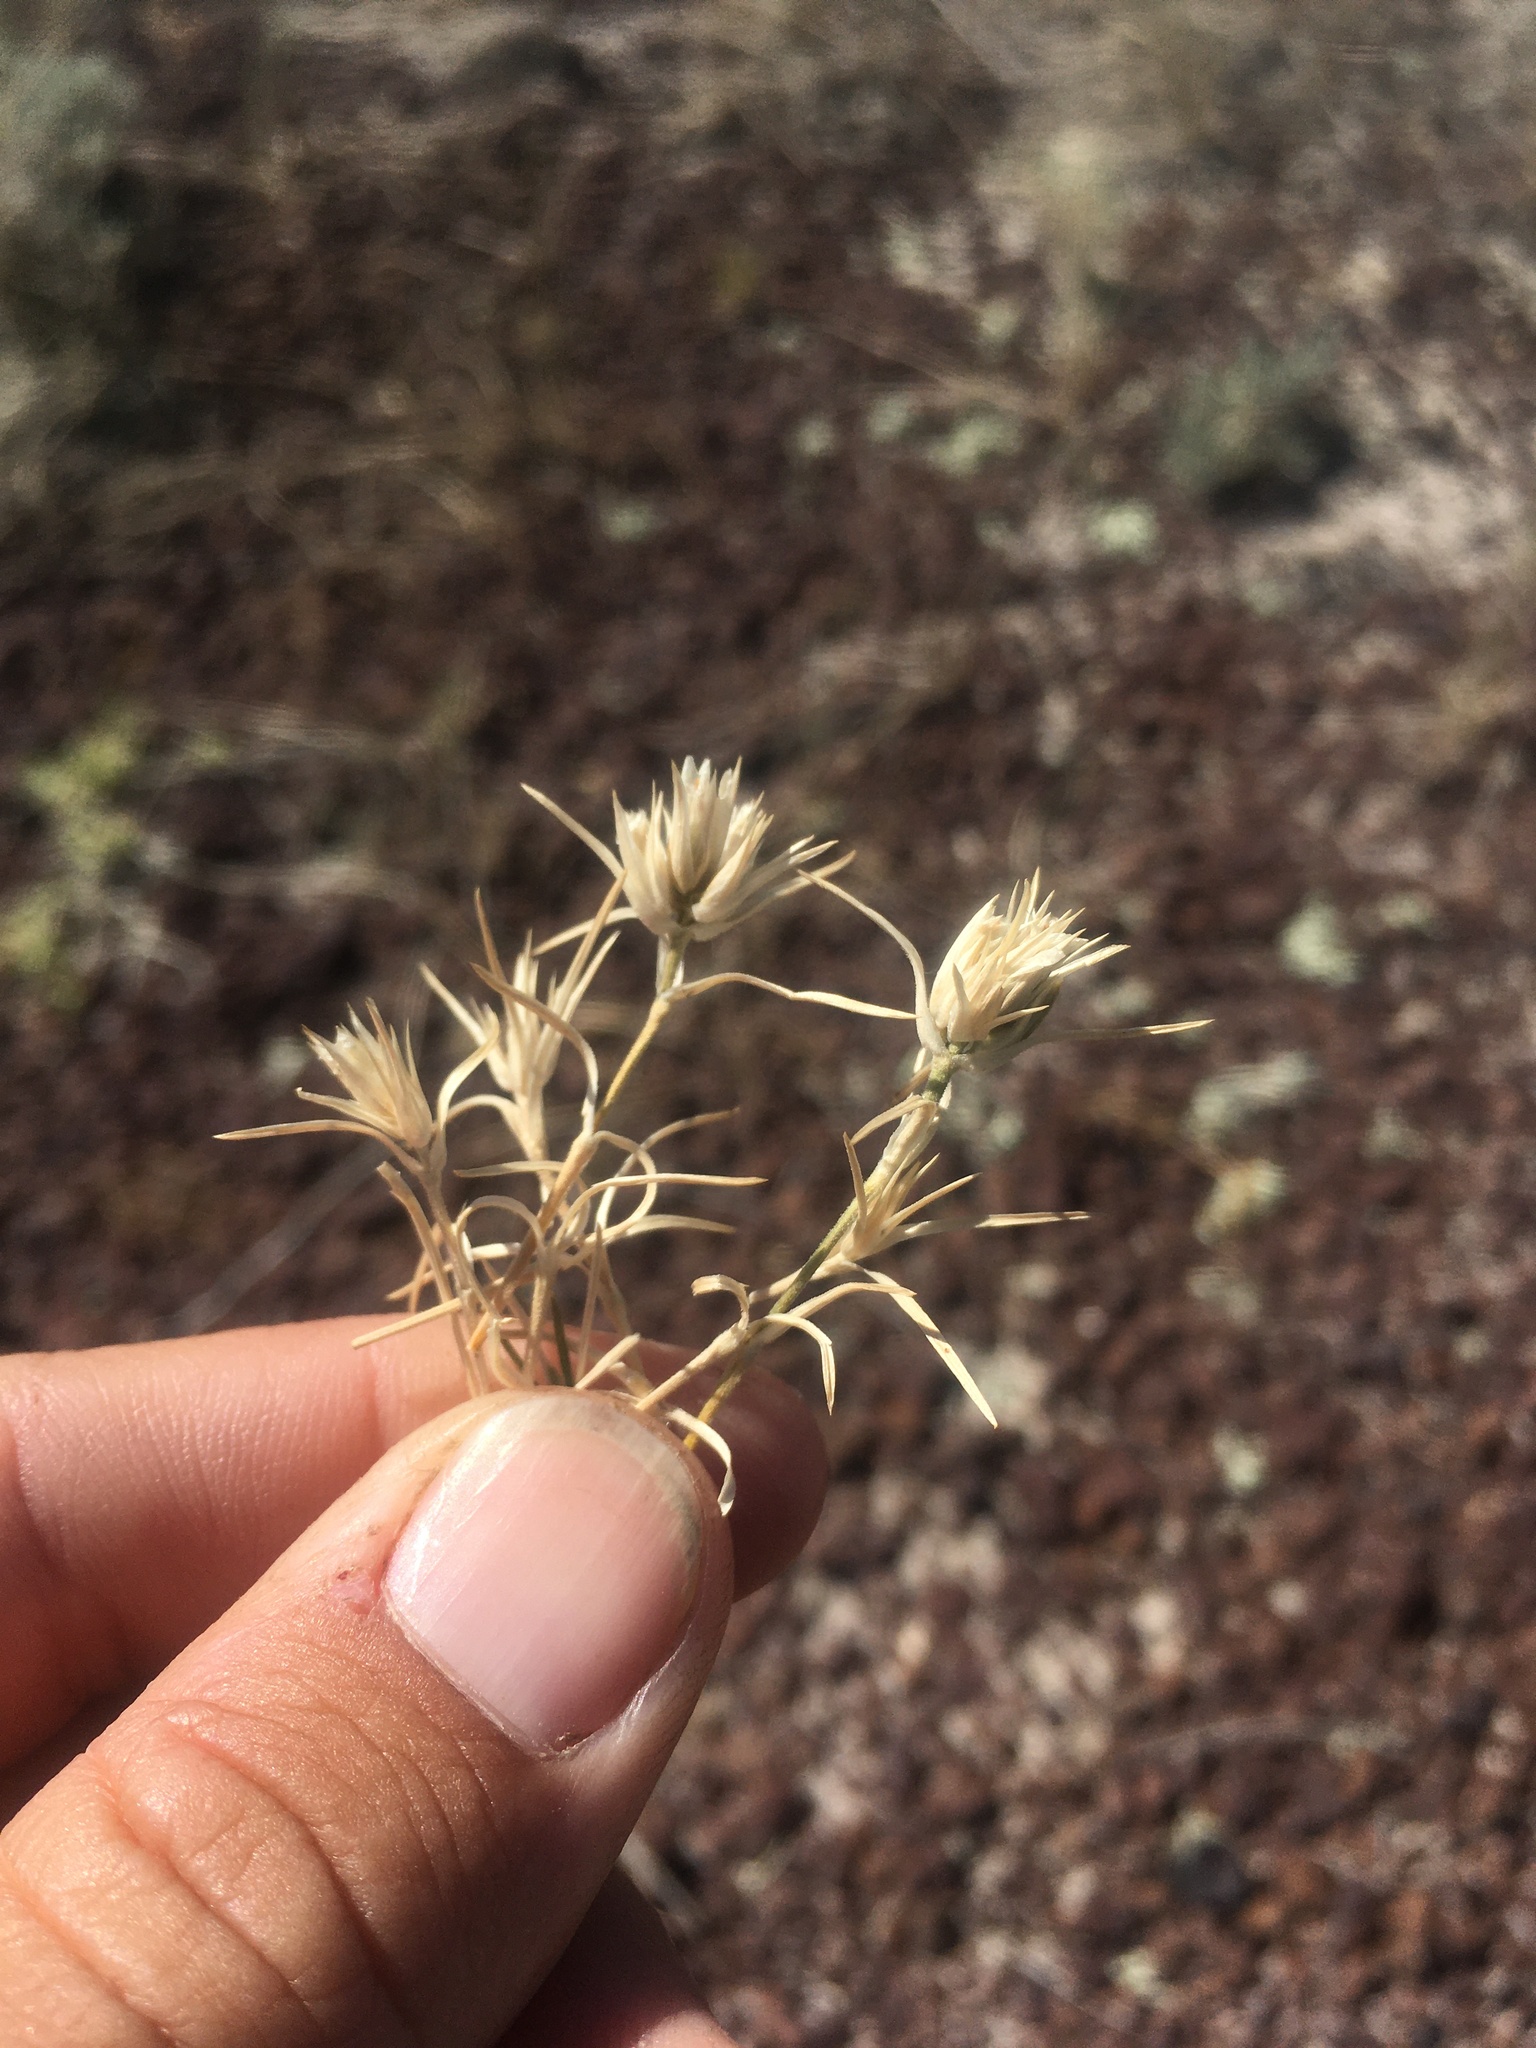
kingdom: Plantae
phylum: Tracheophyta
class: Magnoliopsida
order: Caryophyllales
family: Caryophyllaceae
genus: Eremogone
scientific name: Eremogone hookeri
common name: Hooker's sandwort
